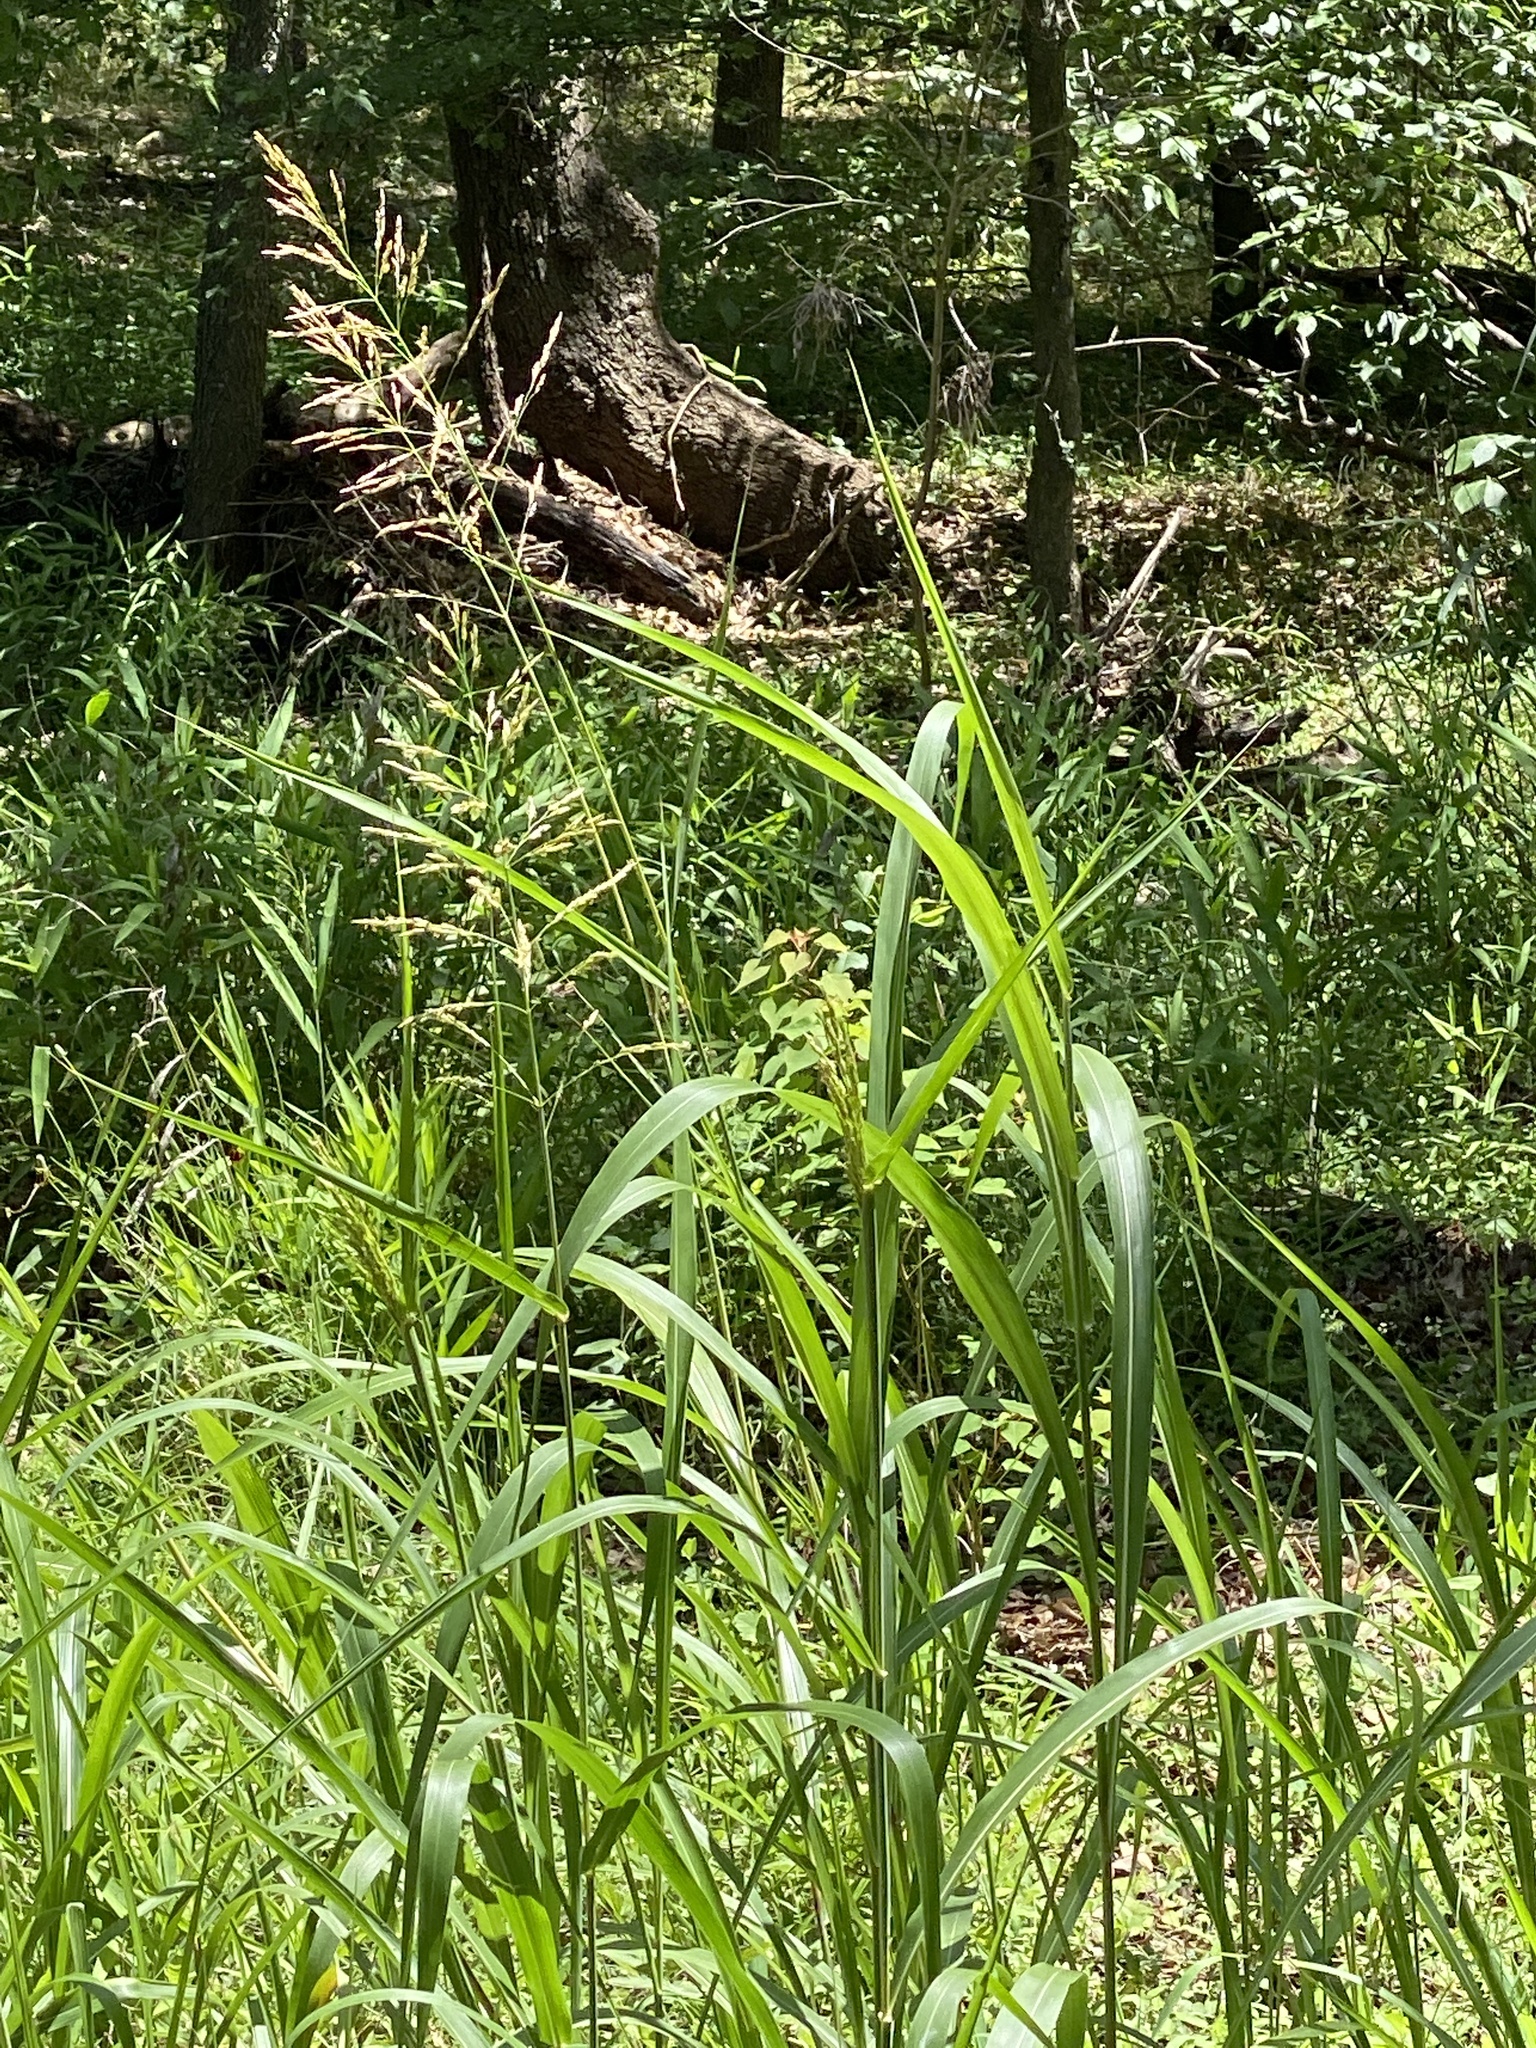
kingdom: Plantae
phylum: Tracheophyta
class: Liliopsida
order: Poales
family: Poaceae
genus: Sorghum
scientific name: Sorghum halepense
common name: Johnson-grass
